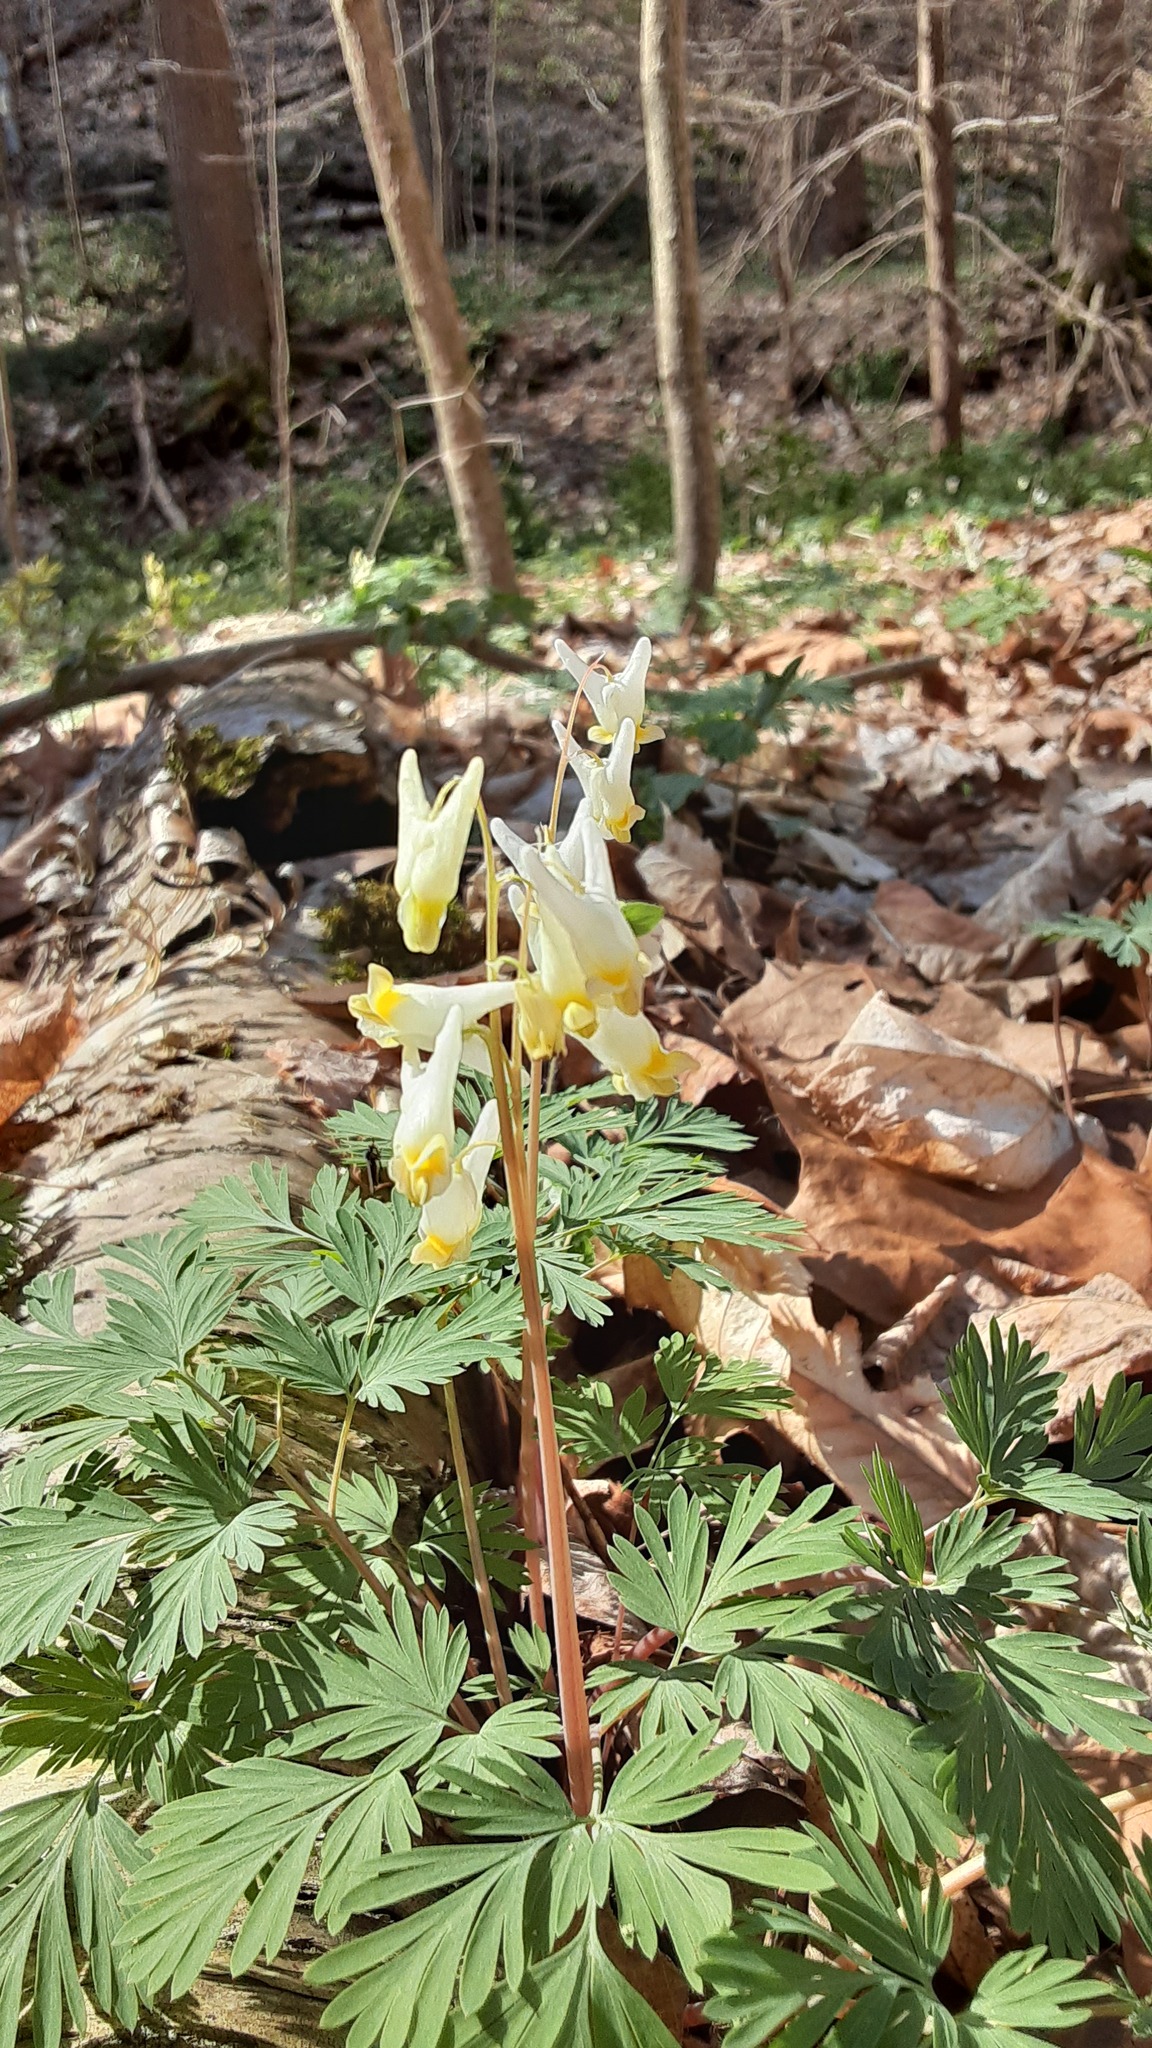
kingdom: Plantae
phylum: Tracheophyta
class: Magnoliopsida
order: Ranunculales
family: Papaveraceae
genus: Dicentra
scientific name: Dicentra cucullaria
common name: Dutchman's breeches
